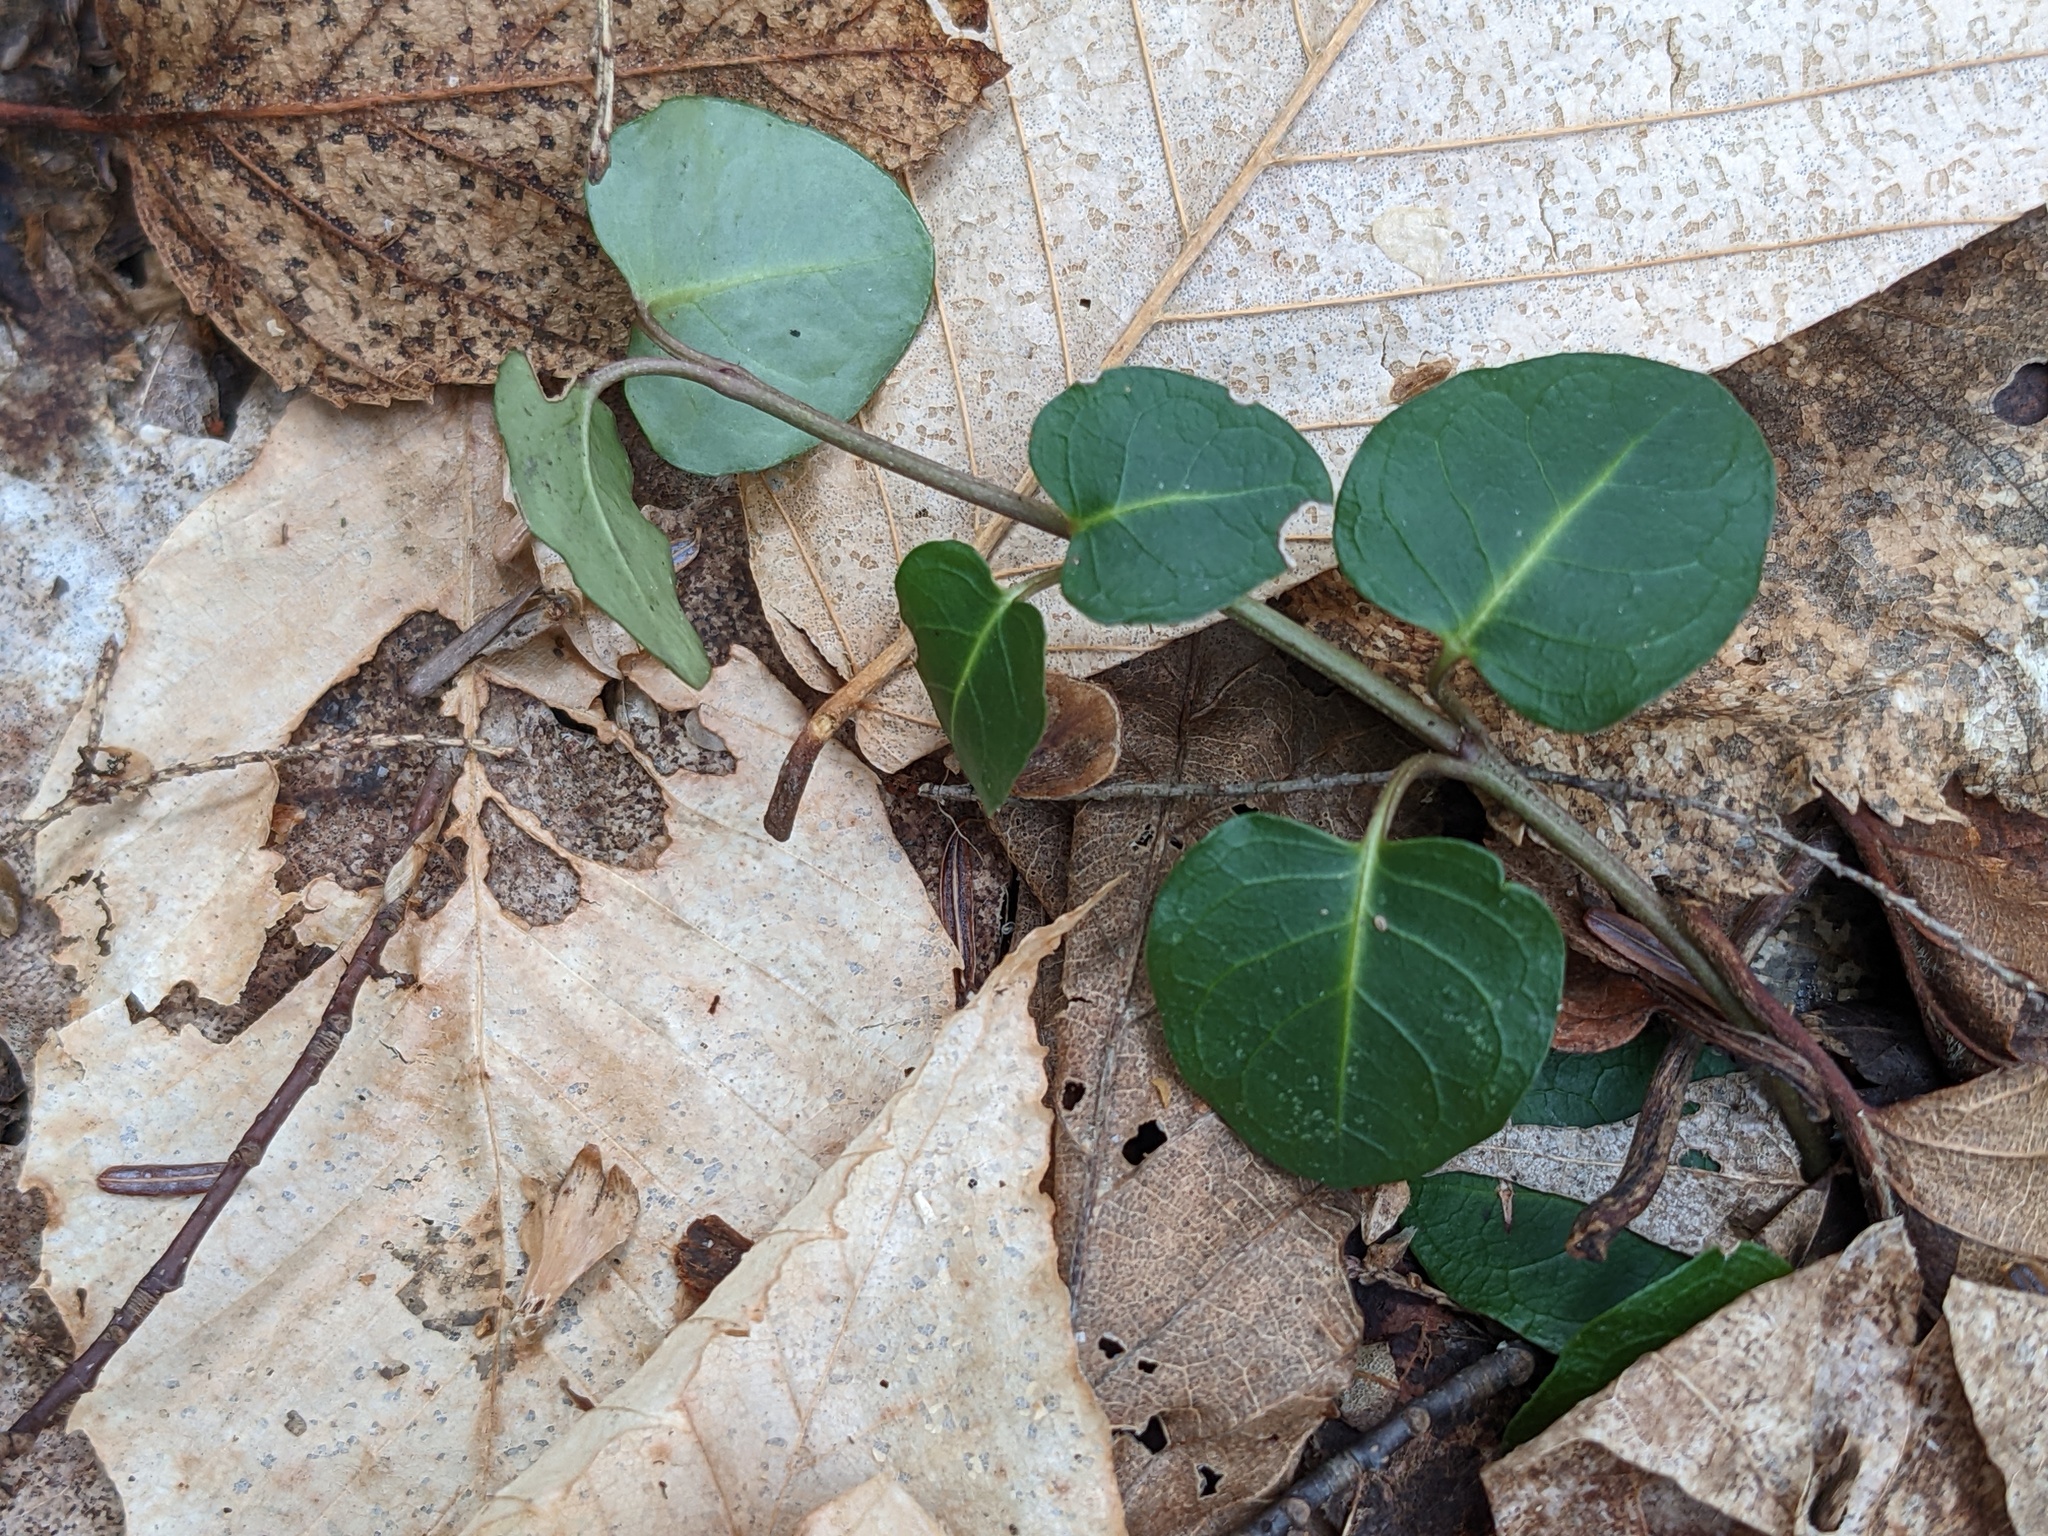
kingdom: Plantae
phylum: Tracheophyta
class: Magnoliopsida
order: Gentianales
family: Rubiaceae
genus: Mitchella
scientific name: Mitchella repens
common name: Partridge-berry
